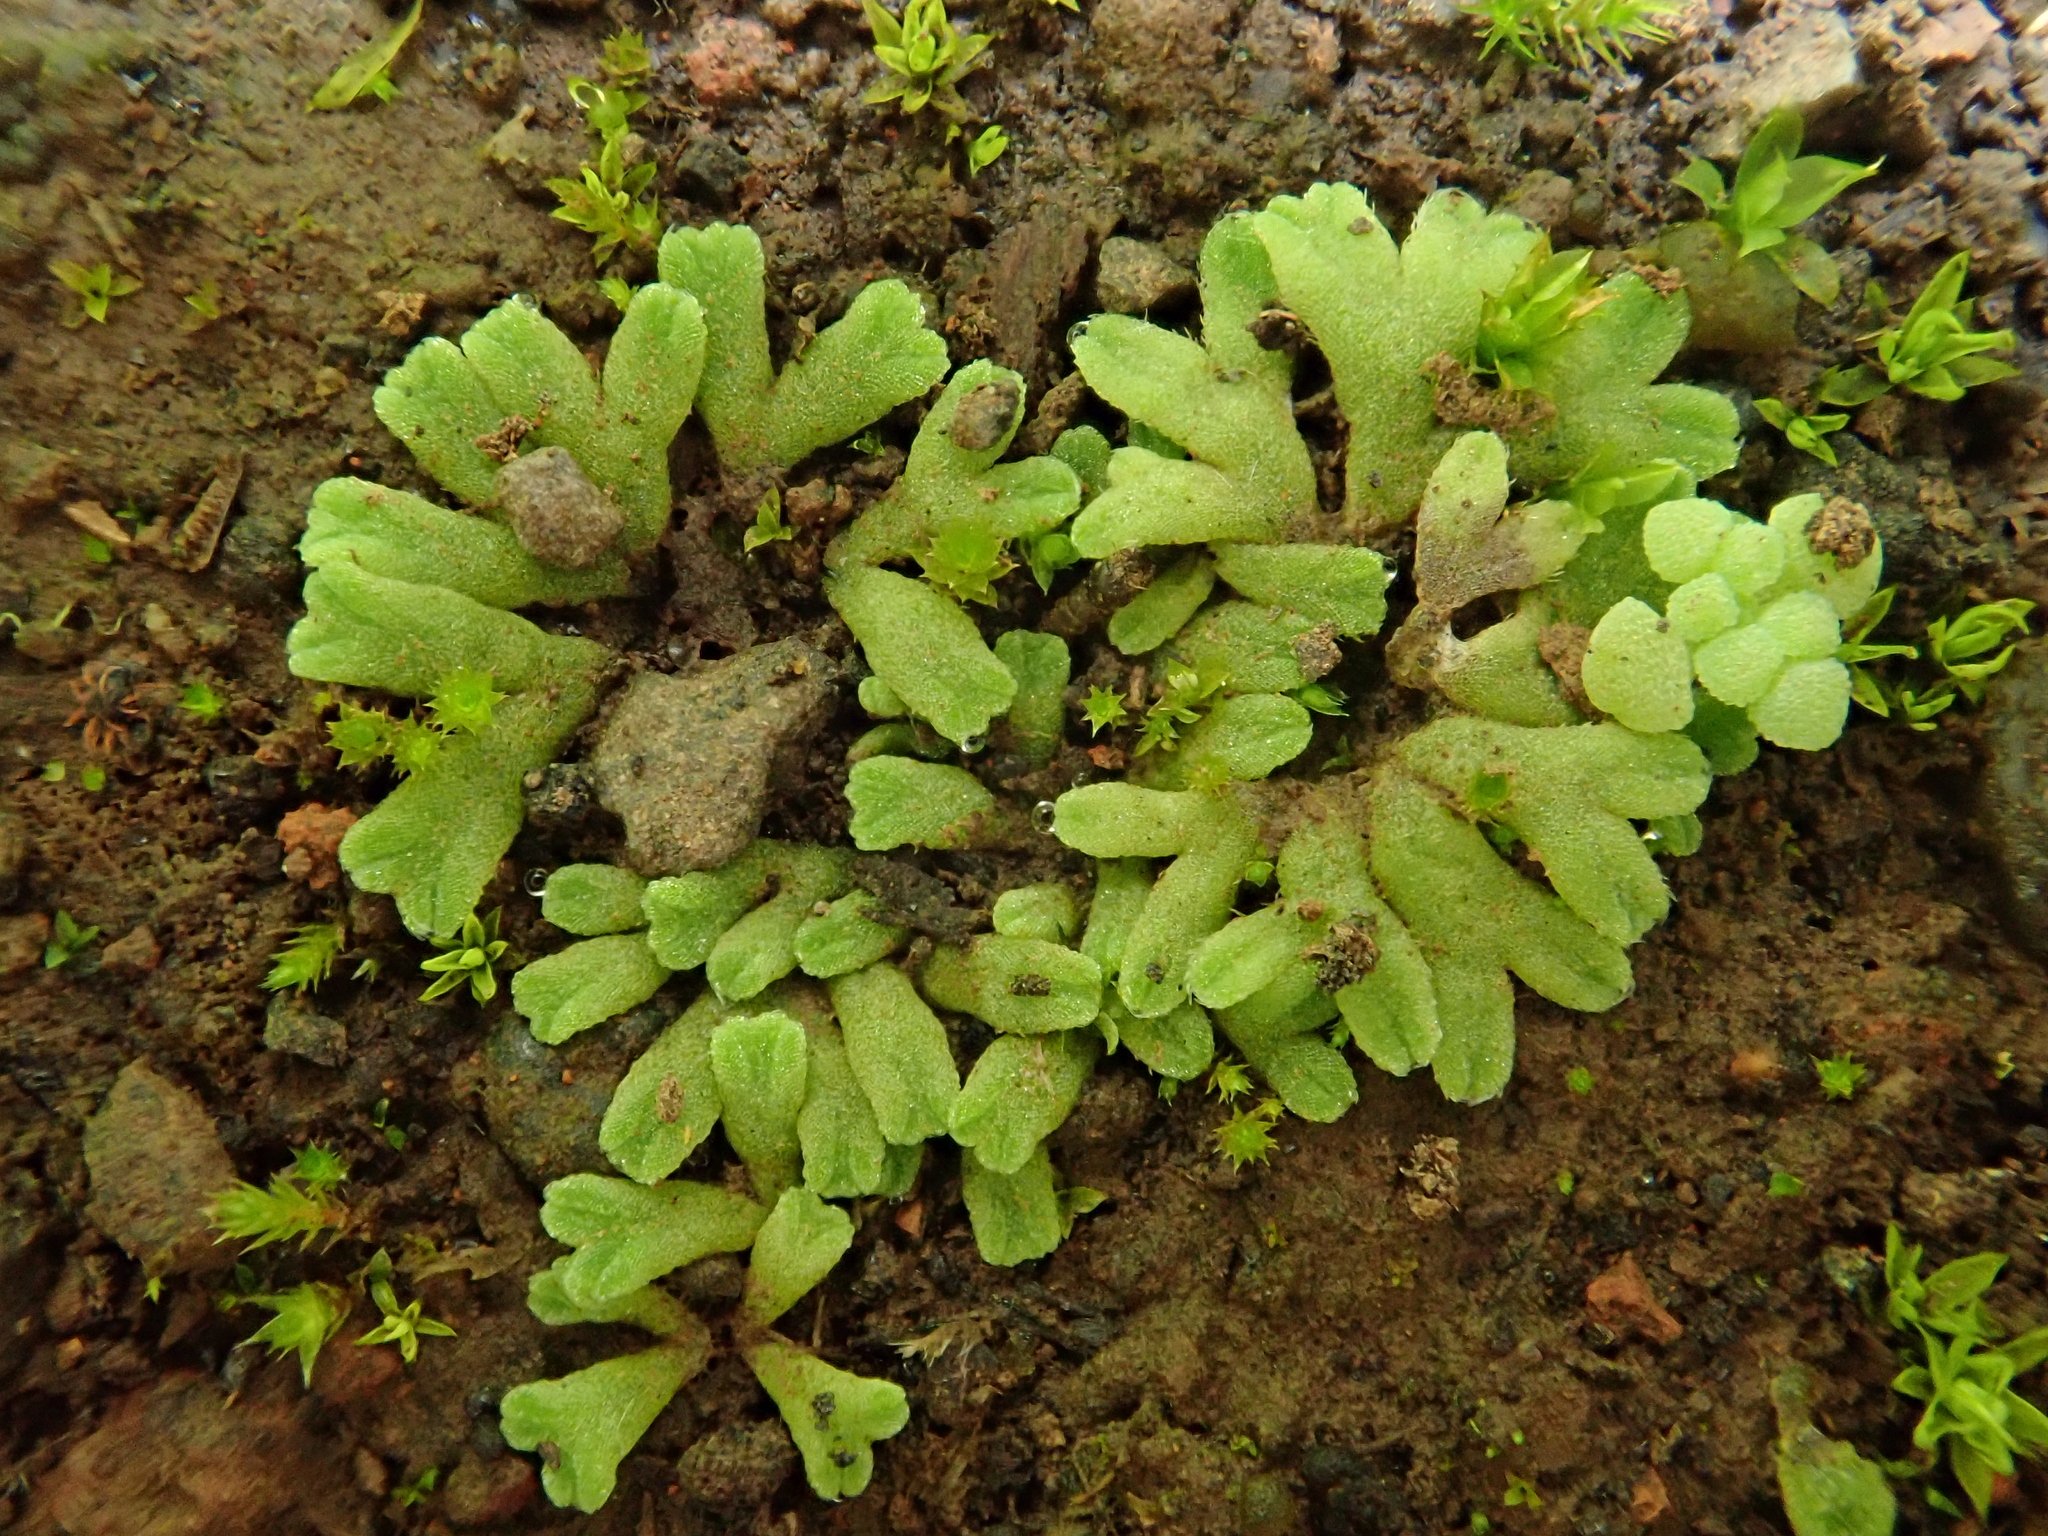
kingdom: Plantae
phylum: Marchantiophyta
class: Marchantiopsida
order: Marchantiales
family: Ricciaceae
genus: Riccia
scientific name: Riccia crozalsii
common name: Ciliate crystalwort
